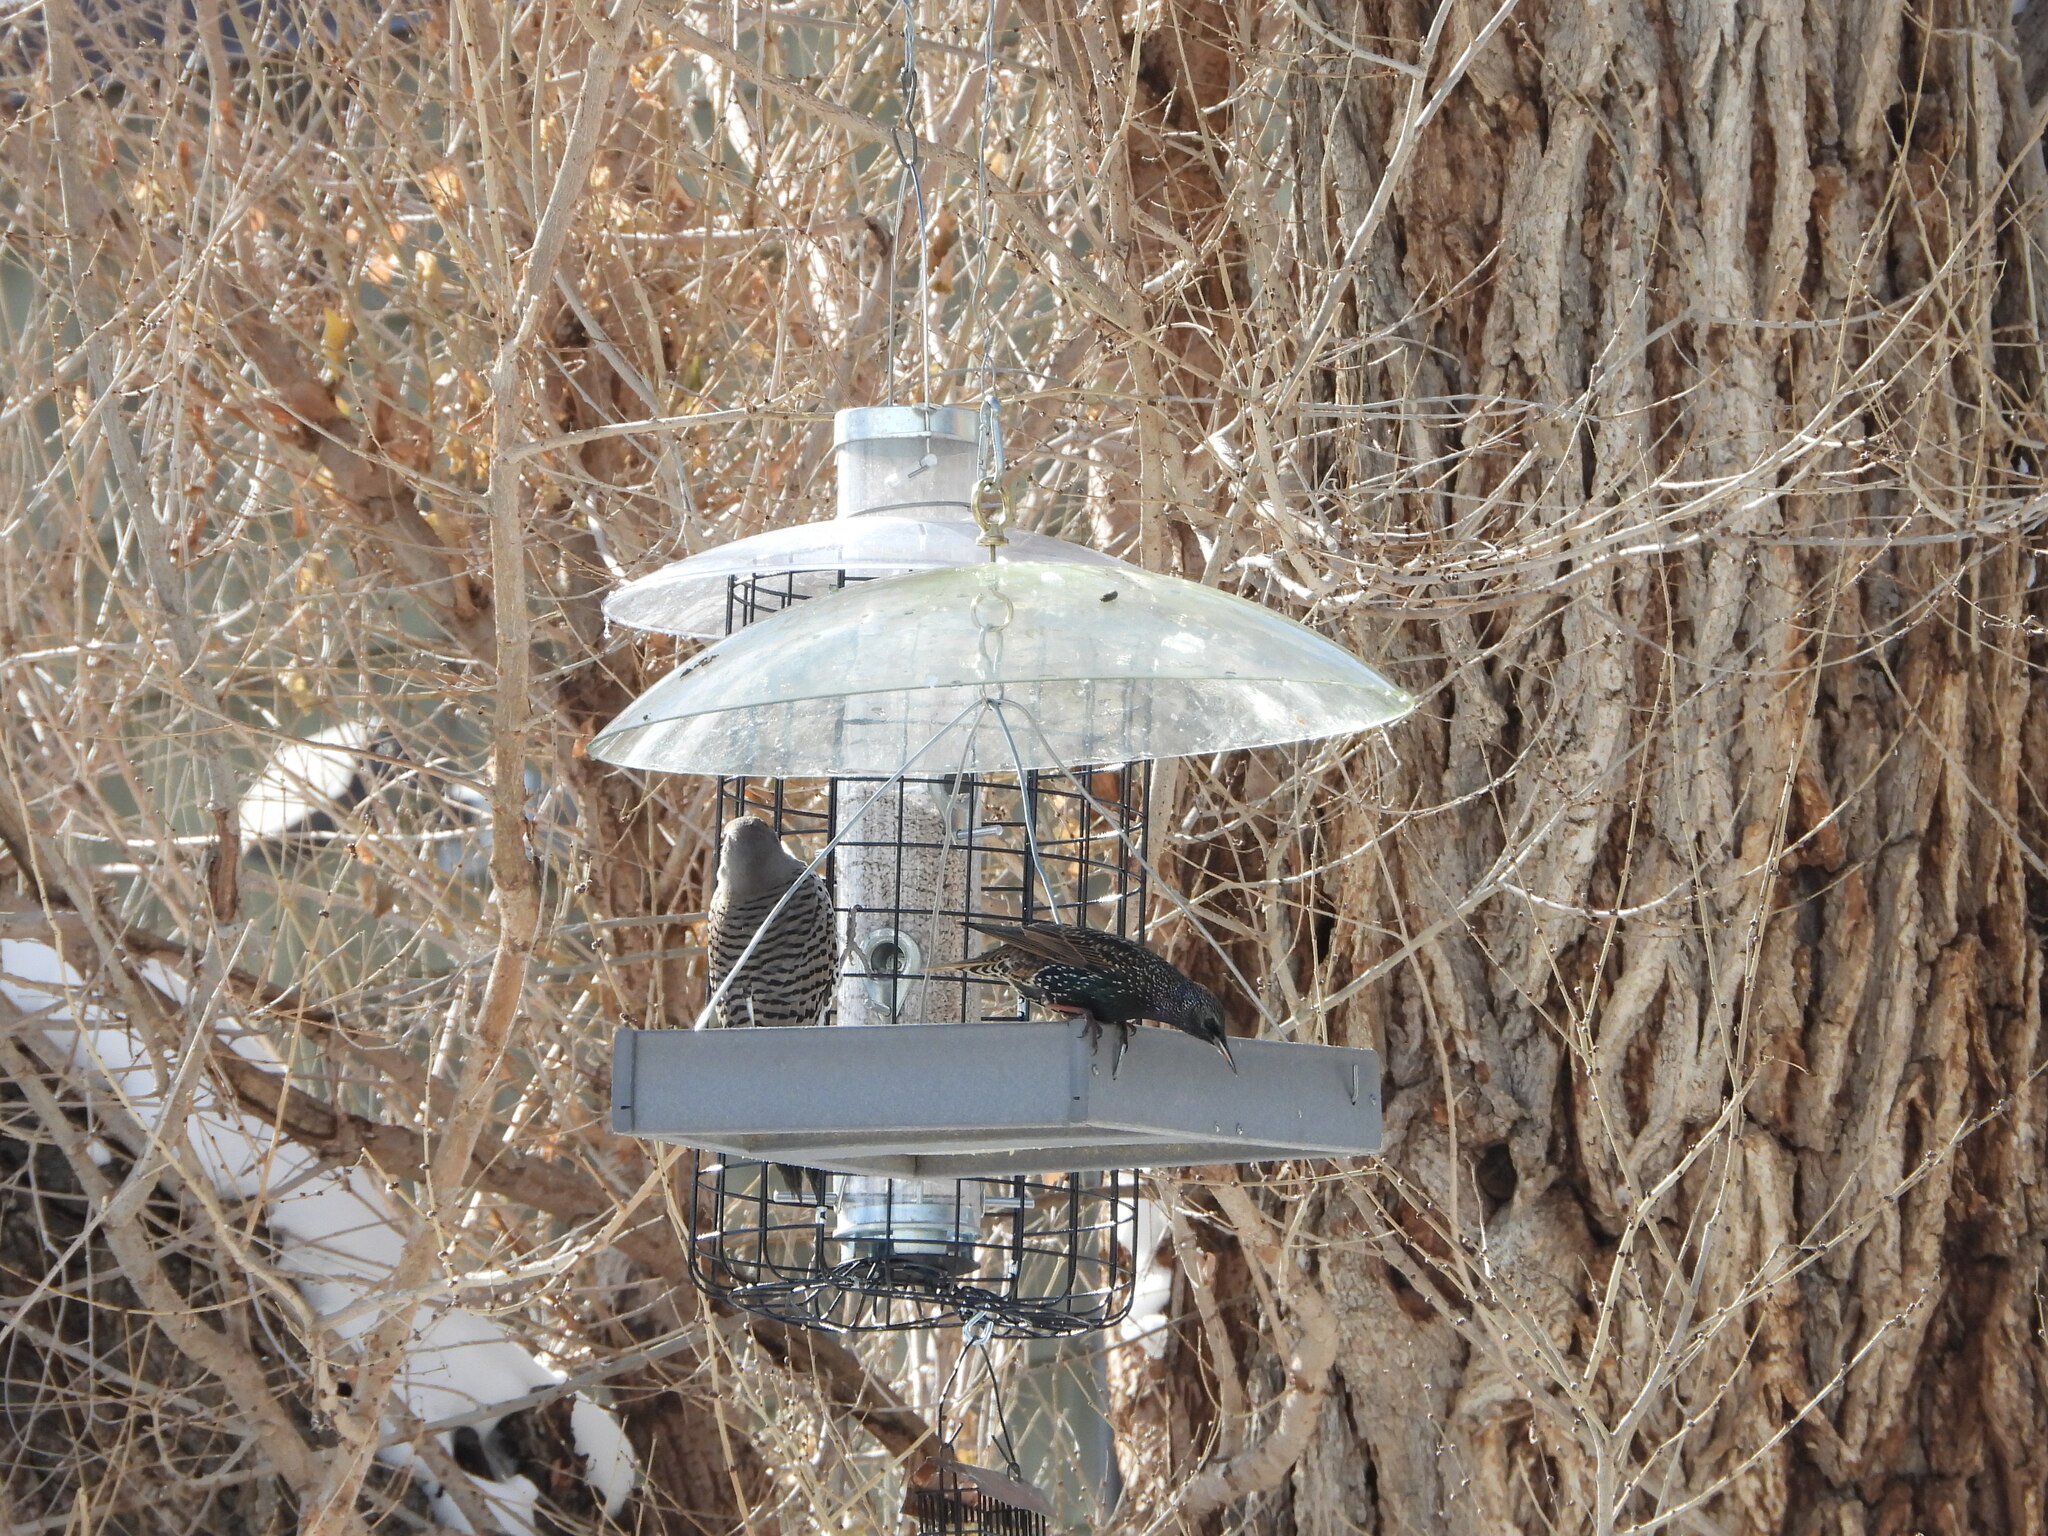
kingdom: Animalia
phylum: Chordata
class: Aves
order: Passeriformes
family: Sturnidae
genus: Sturnus
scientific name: Sturnus vulgaris
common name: Common starling
